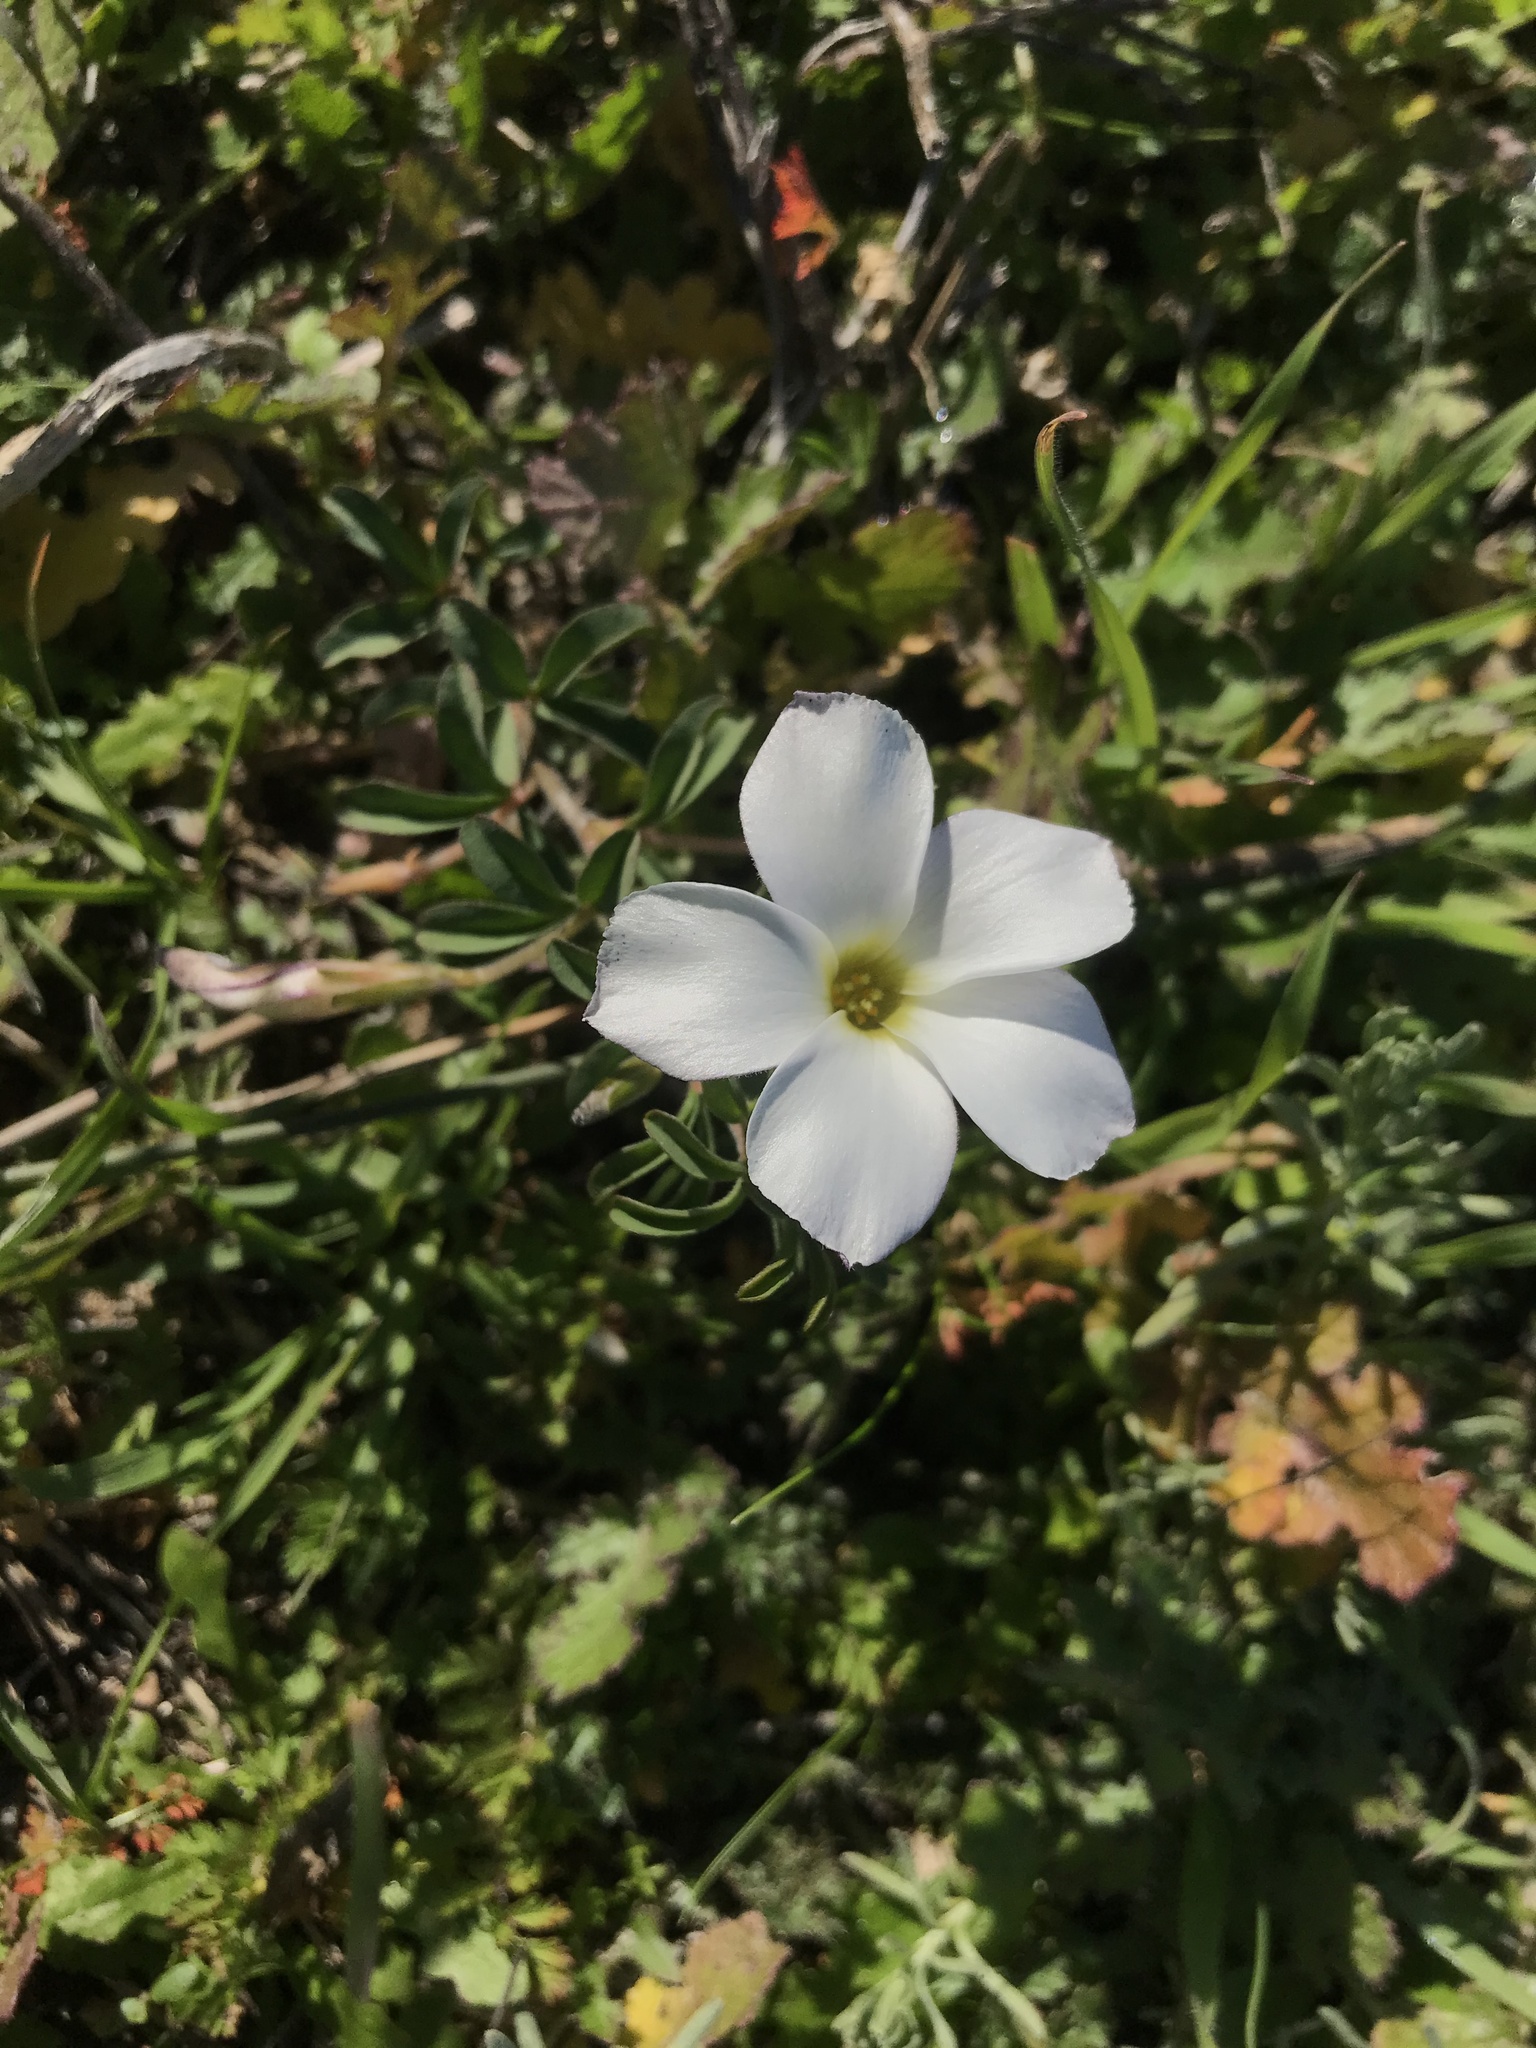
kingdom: Plantae
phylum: Tracheophyta
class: Magnoliopsida
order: Oxalidales
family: Oxalidaceae
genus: Oxalis
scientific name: Oxalis hirta
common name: Tropical woodsorrel
